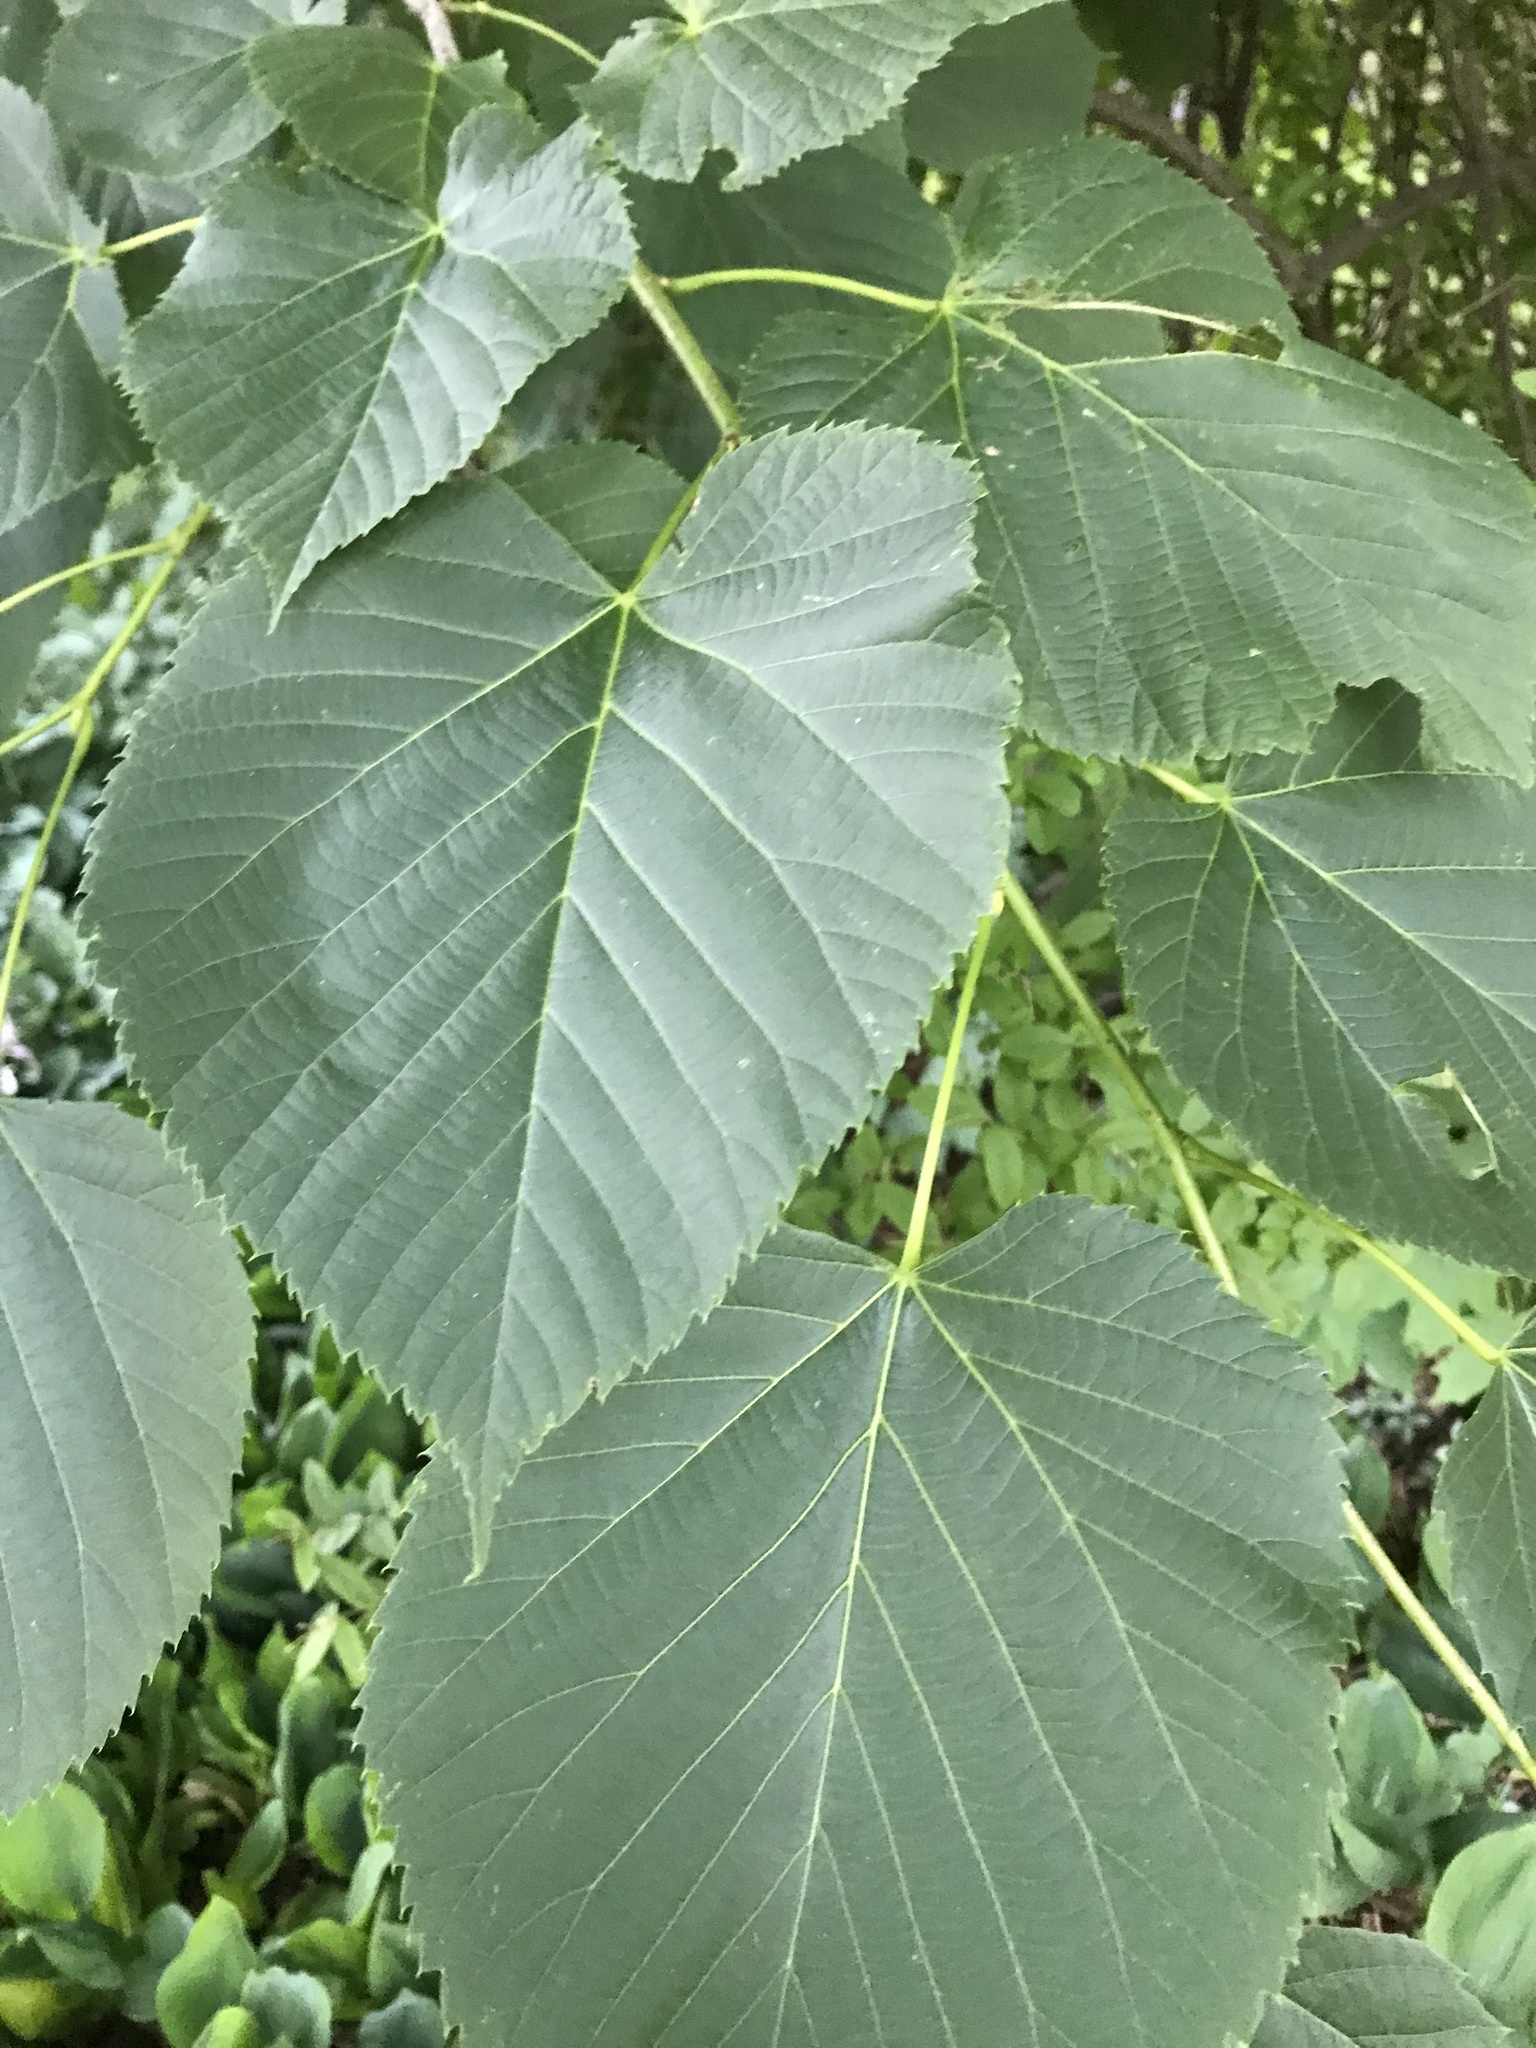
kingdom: Plantae
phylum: Tracheophyta
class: Magnoliopsida
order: Malvales
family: Malvaceae
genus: Tilia
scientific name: Tilia americana
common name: Basswood
